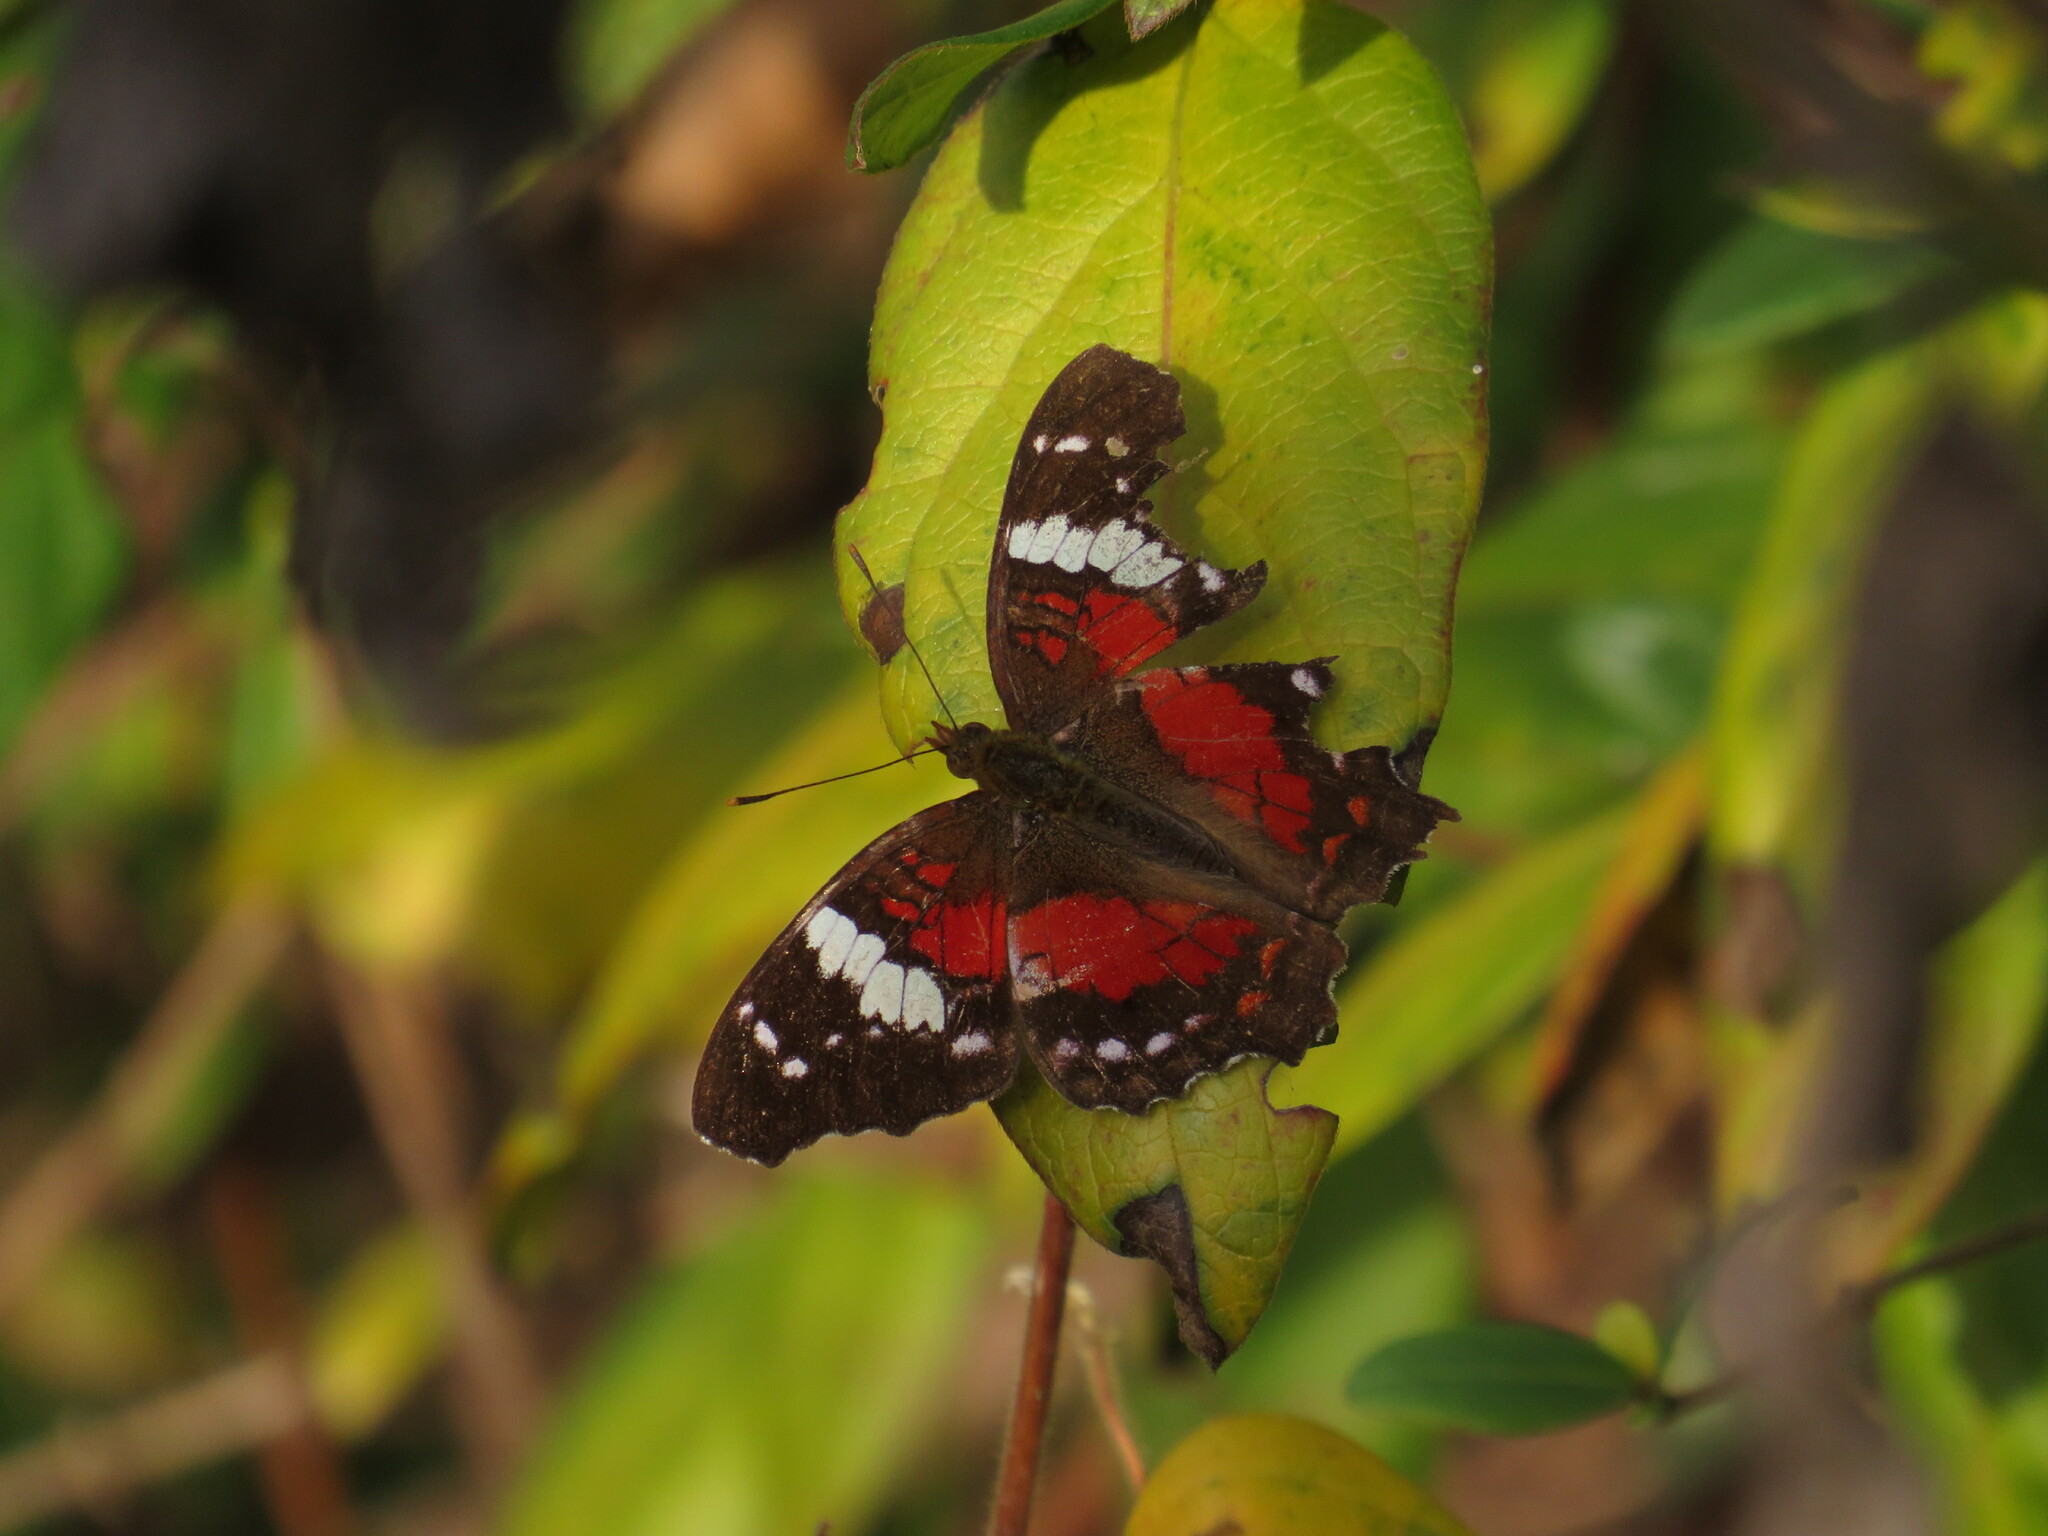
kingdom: Animalia
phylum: Arthropoda
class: Insecta
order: Lepidoptera
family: Nymphalidae
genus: Anartia
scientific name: Anartia amathea
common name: Red peacock
